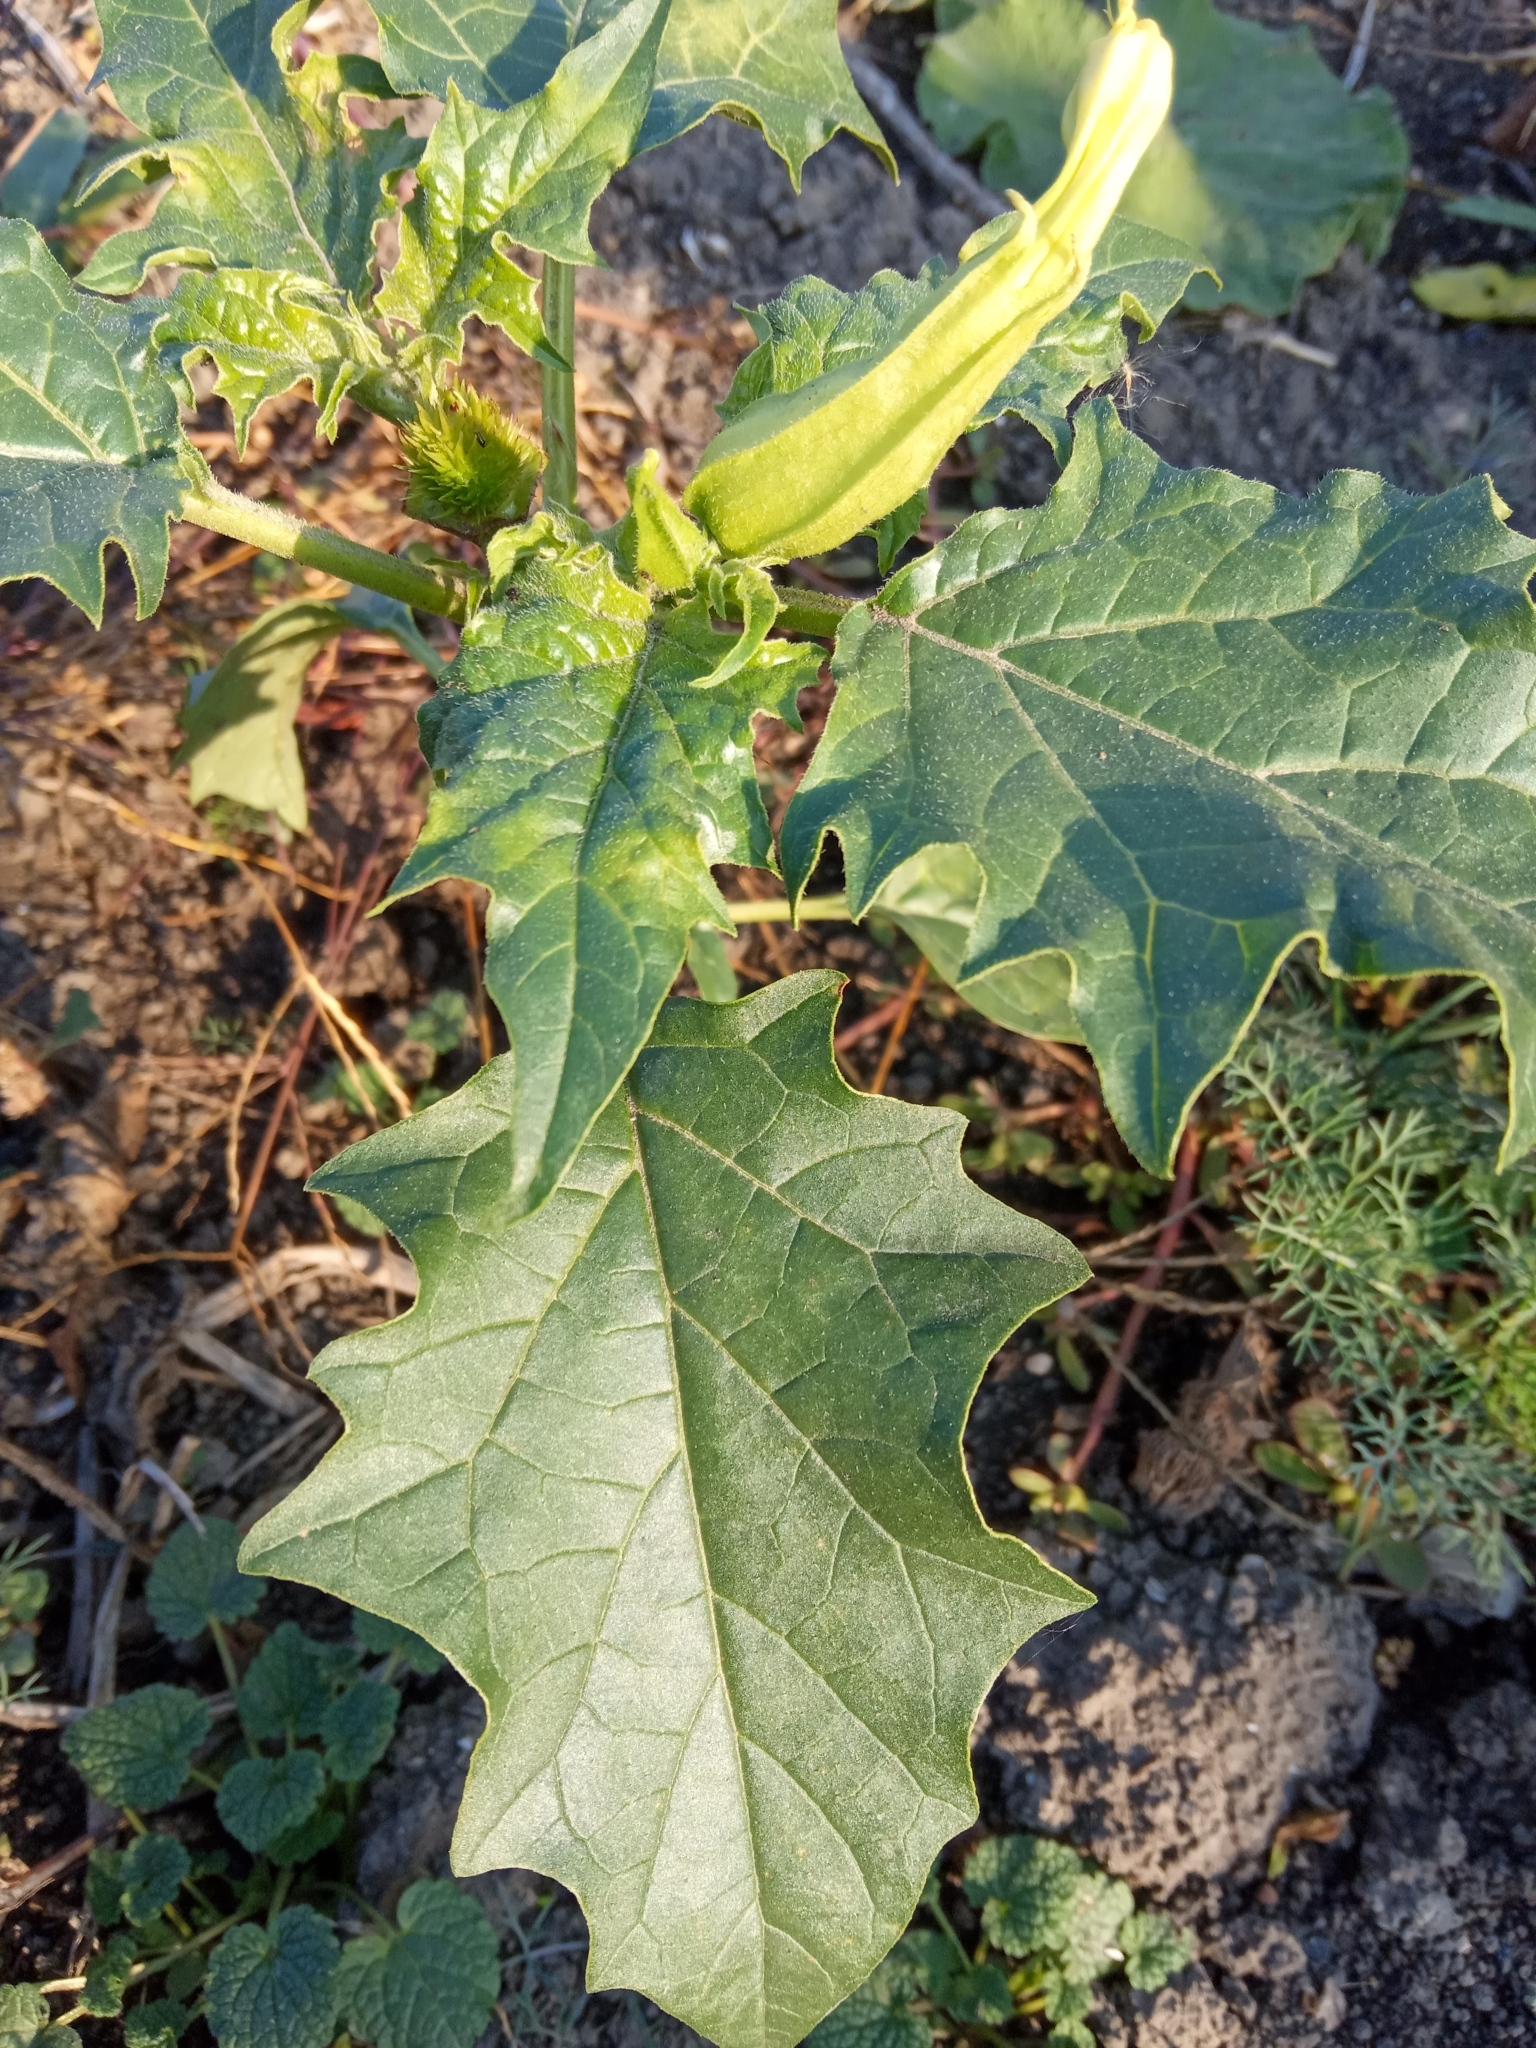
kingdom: Plantae
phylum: Tracheophyta
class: Magnoliopsida
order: Solanales
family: Solanaceae
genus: Datura
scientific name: Datura stramonium
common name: Thorn-apple
